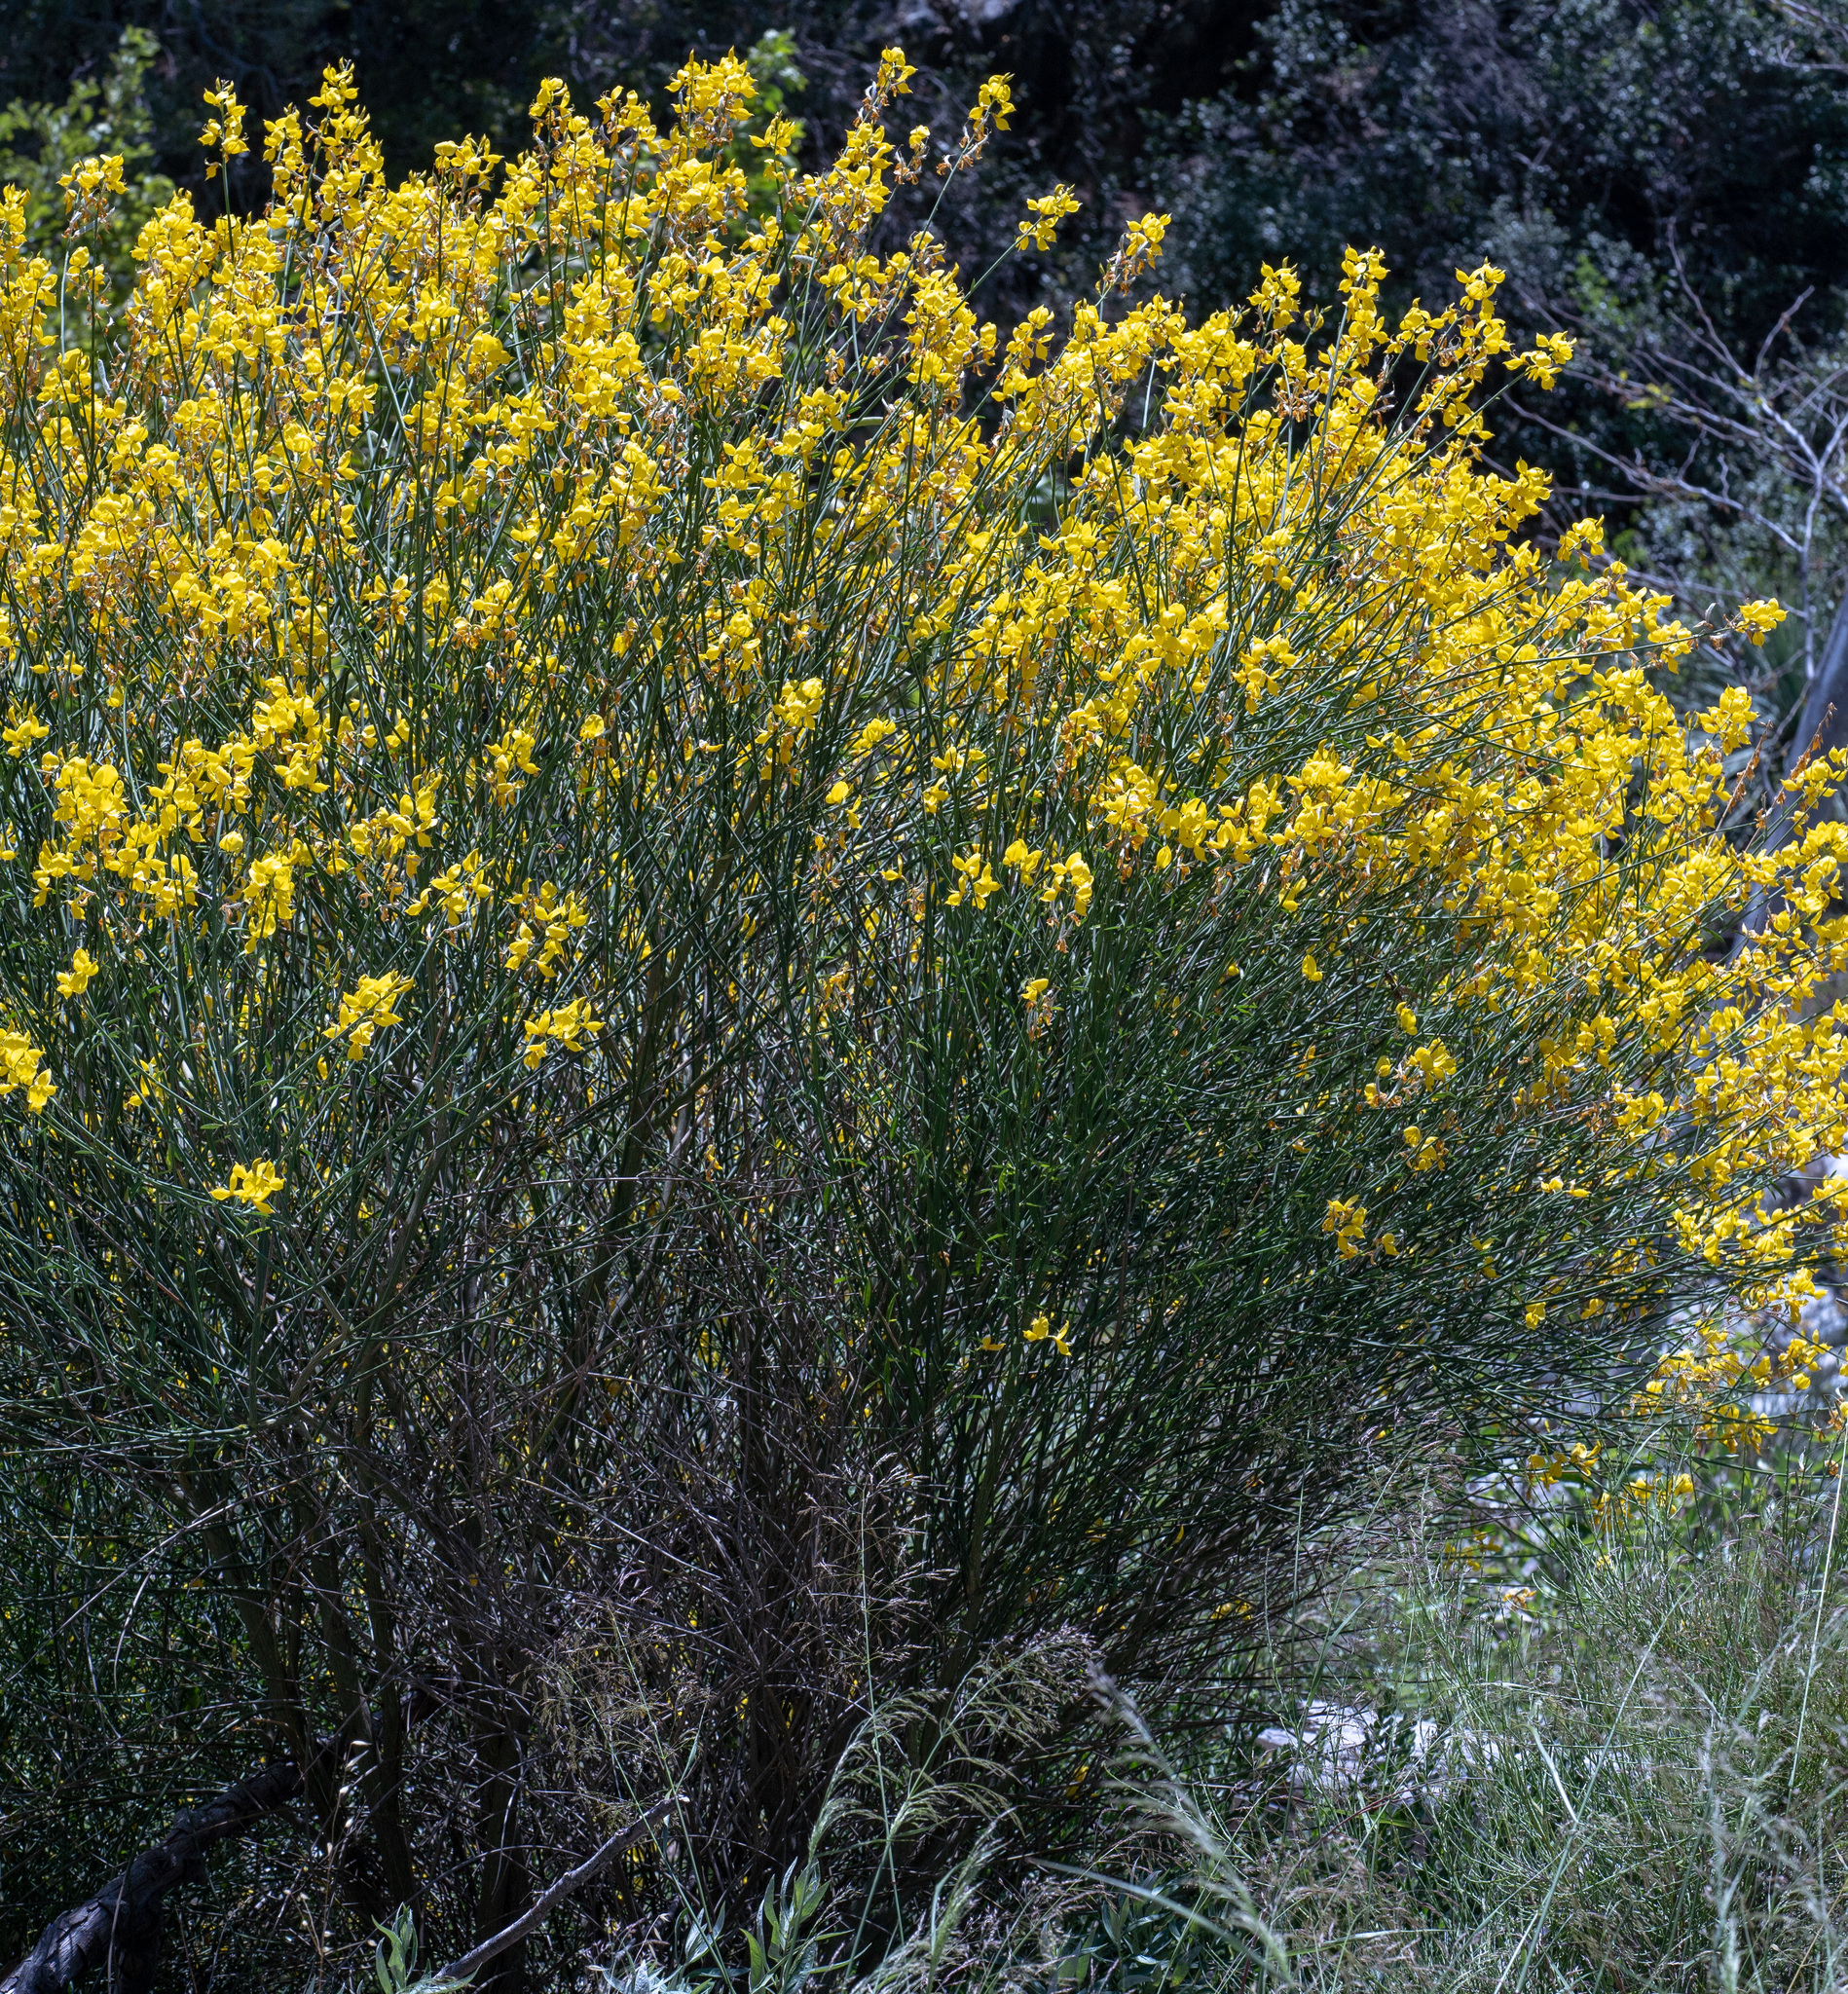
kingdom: Plantae
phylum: Tracheophyta
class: Magnoliopsida
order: Fabales
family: Fabaceae
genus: Spartium
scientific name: Spartium junceum
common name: Spanish broom
